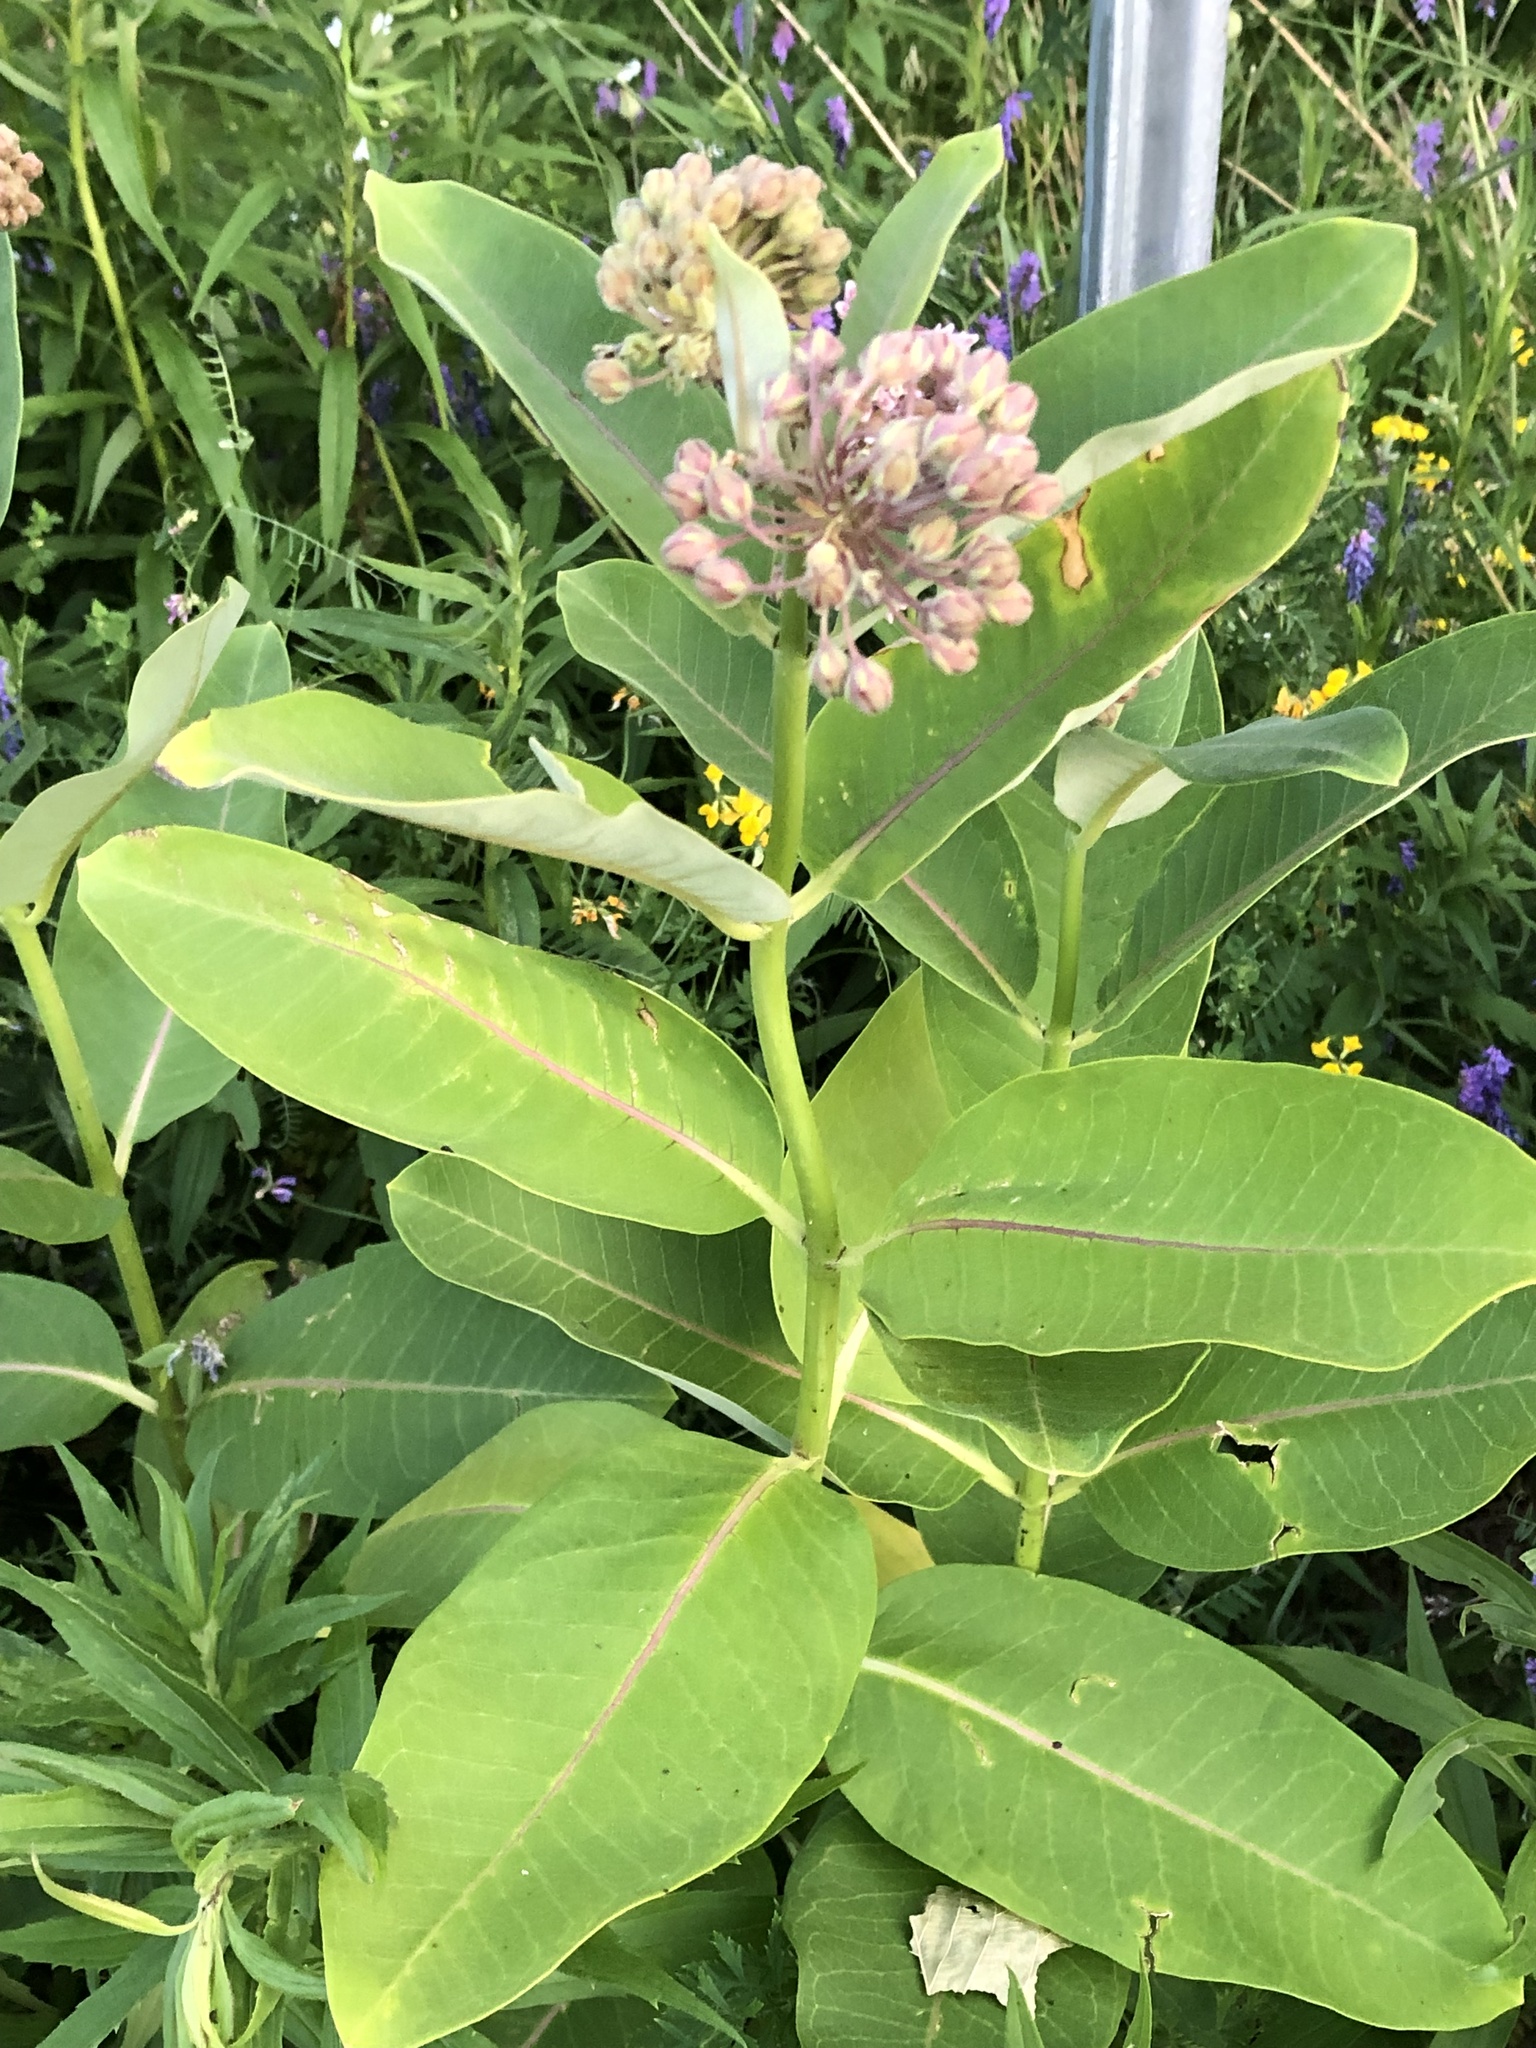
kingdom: Plantae
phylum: Tracheophyta
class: Magnoliopsida
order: Gentianales
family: Apocynaceae
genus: Asclepias
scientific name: Asclepias syriaca
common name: Common milkweed
